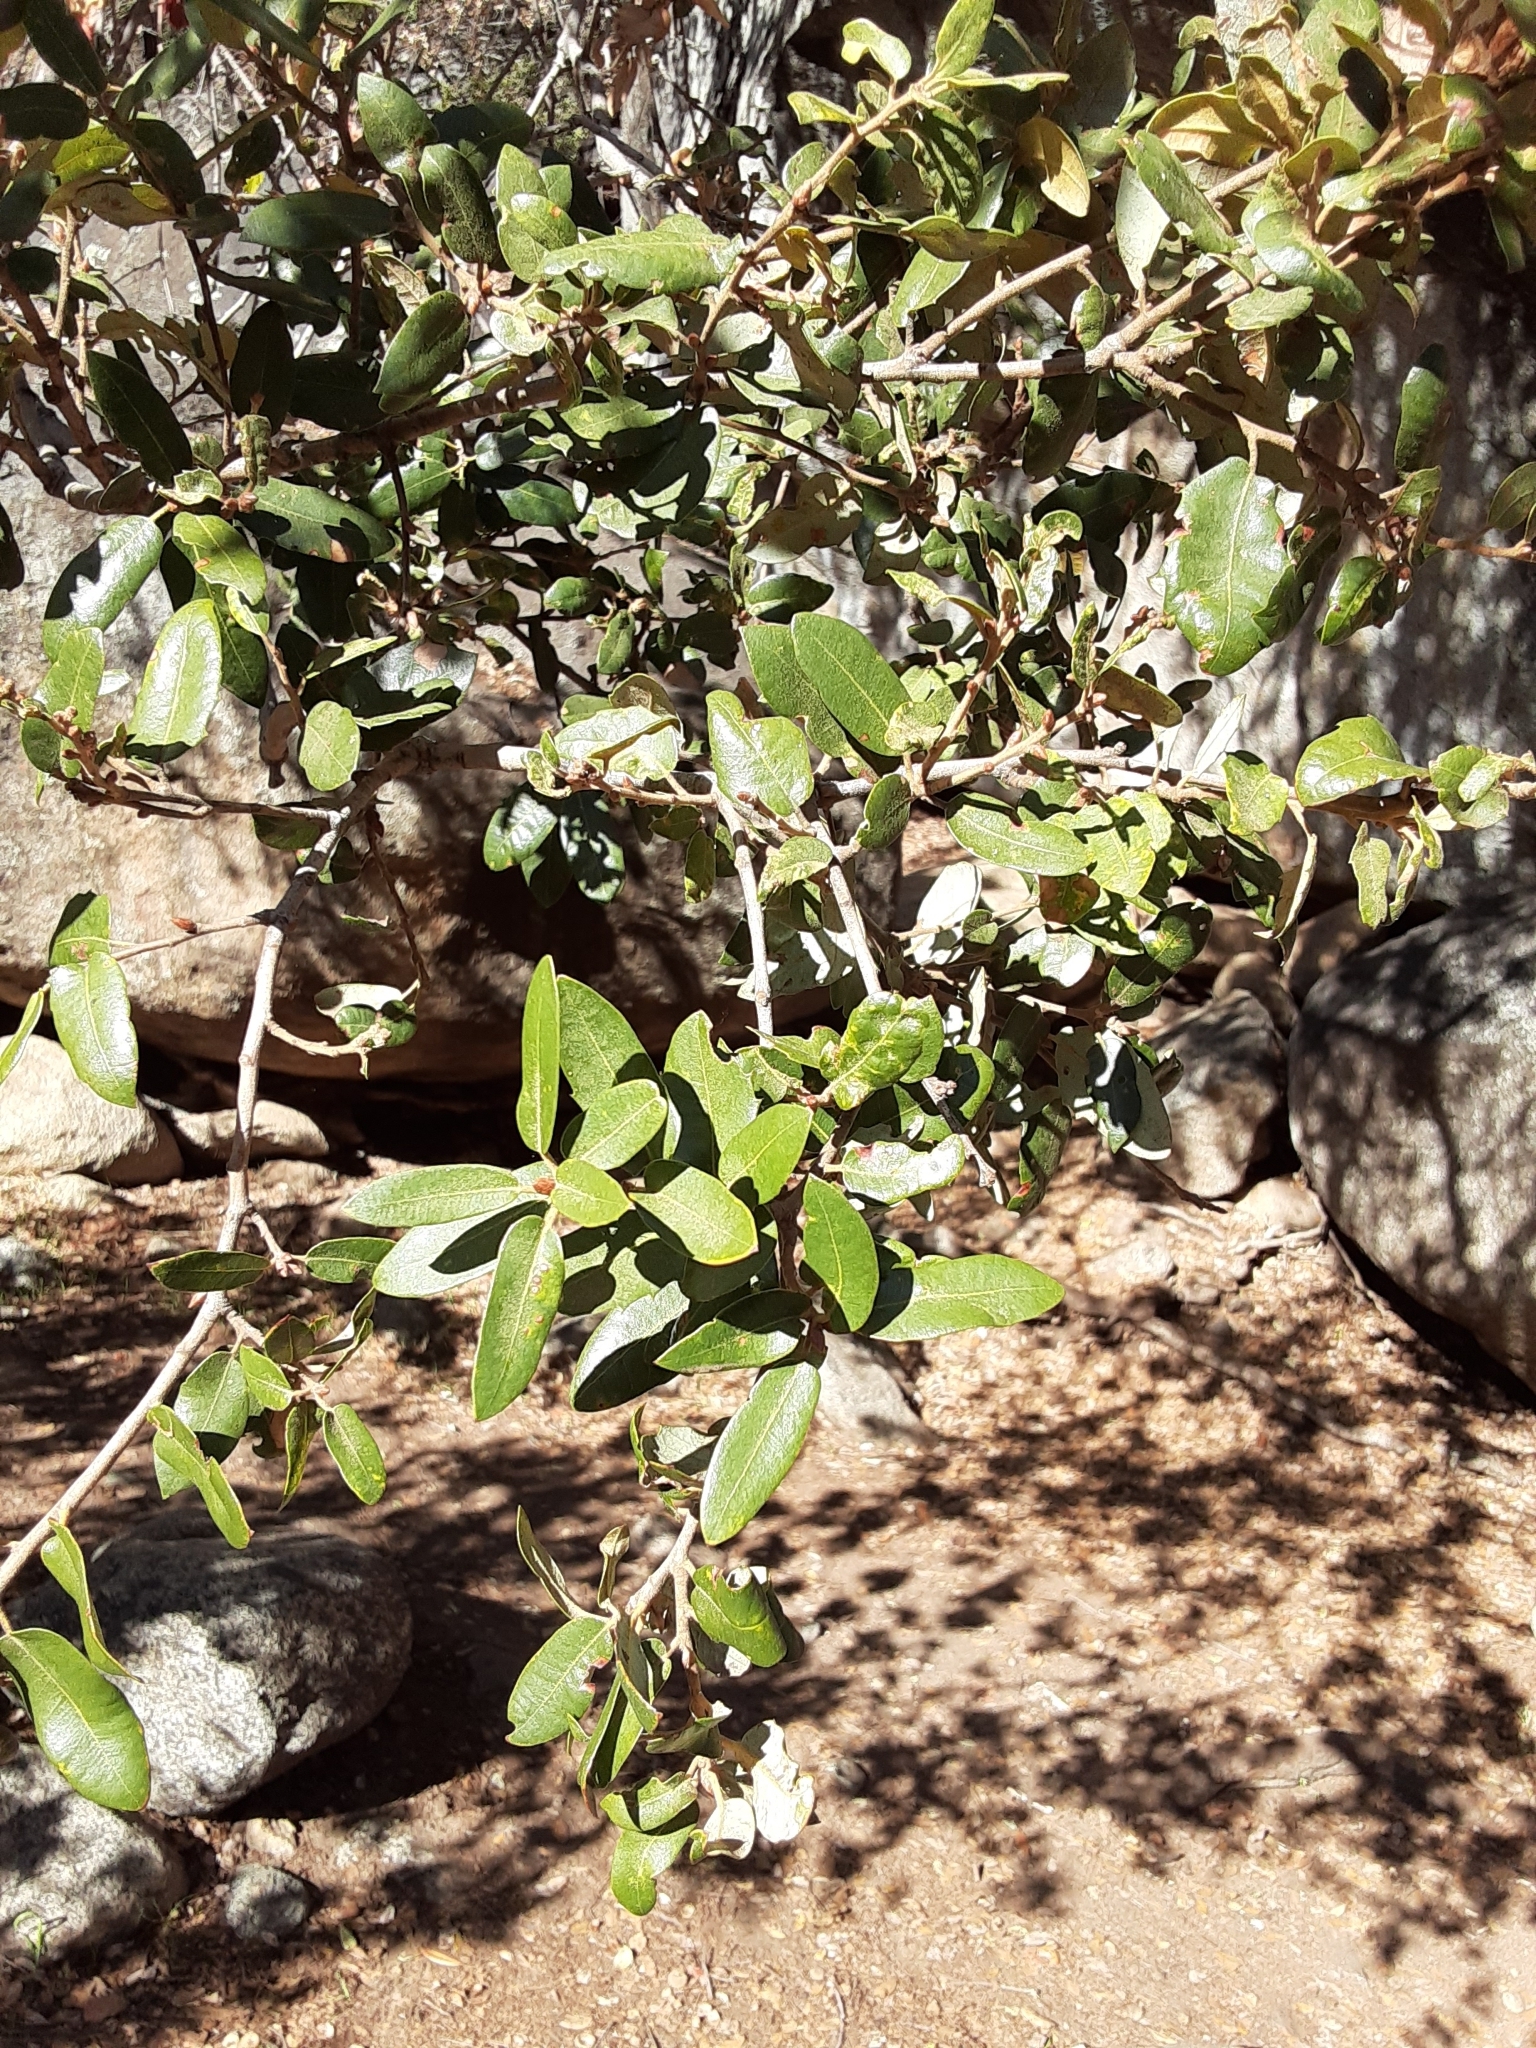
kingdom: Plantae
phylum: Tracheophyta
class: Magnoliopsida
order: Fagales
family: Fagaceae
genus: Quercus
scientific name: Quercus chrysolepis
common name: Canyon live oak
